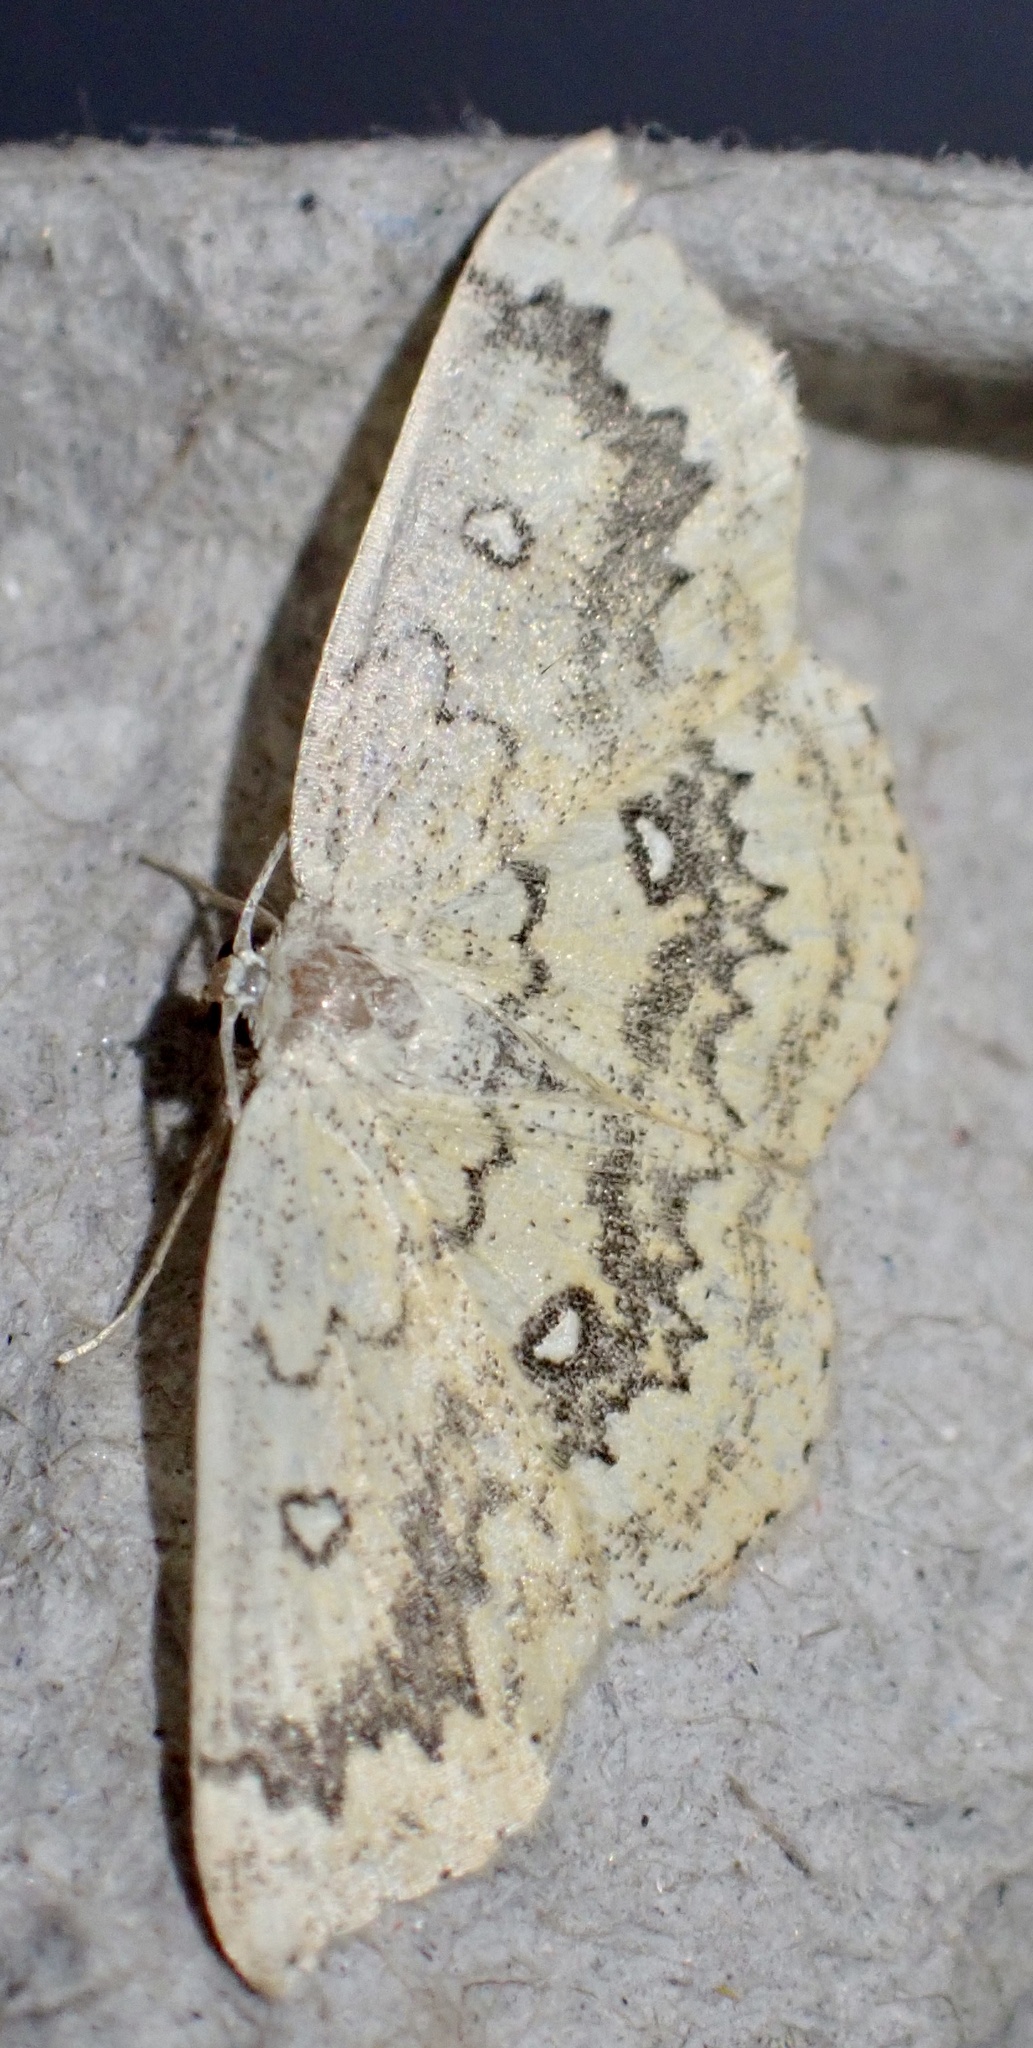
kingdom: Animalia
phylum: Arthropoda
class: Insecta
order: Lepidoptera
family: Geometridae
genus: Cyclophora
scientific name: Cyclophora annularia
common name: Mocha
